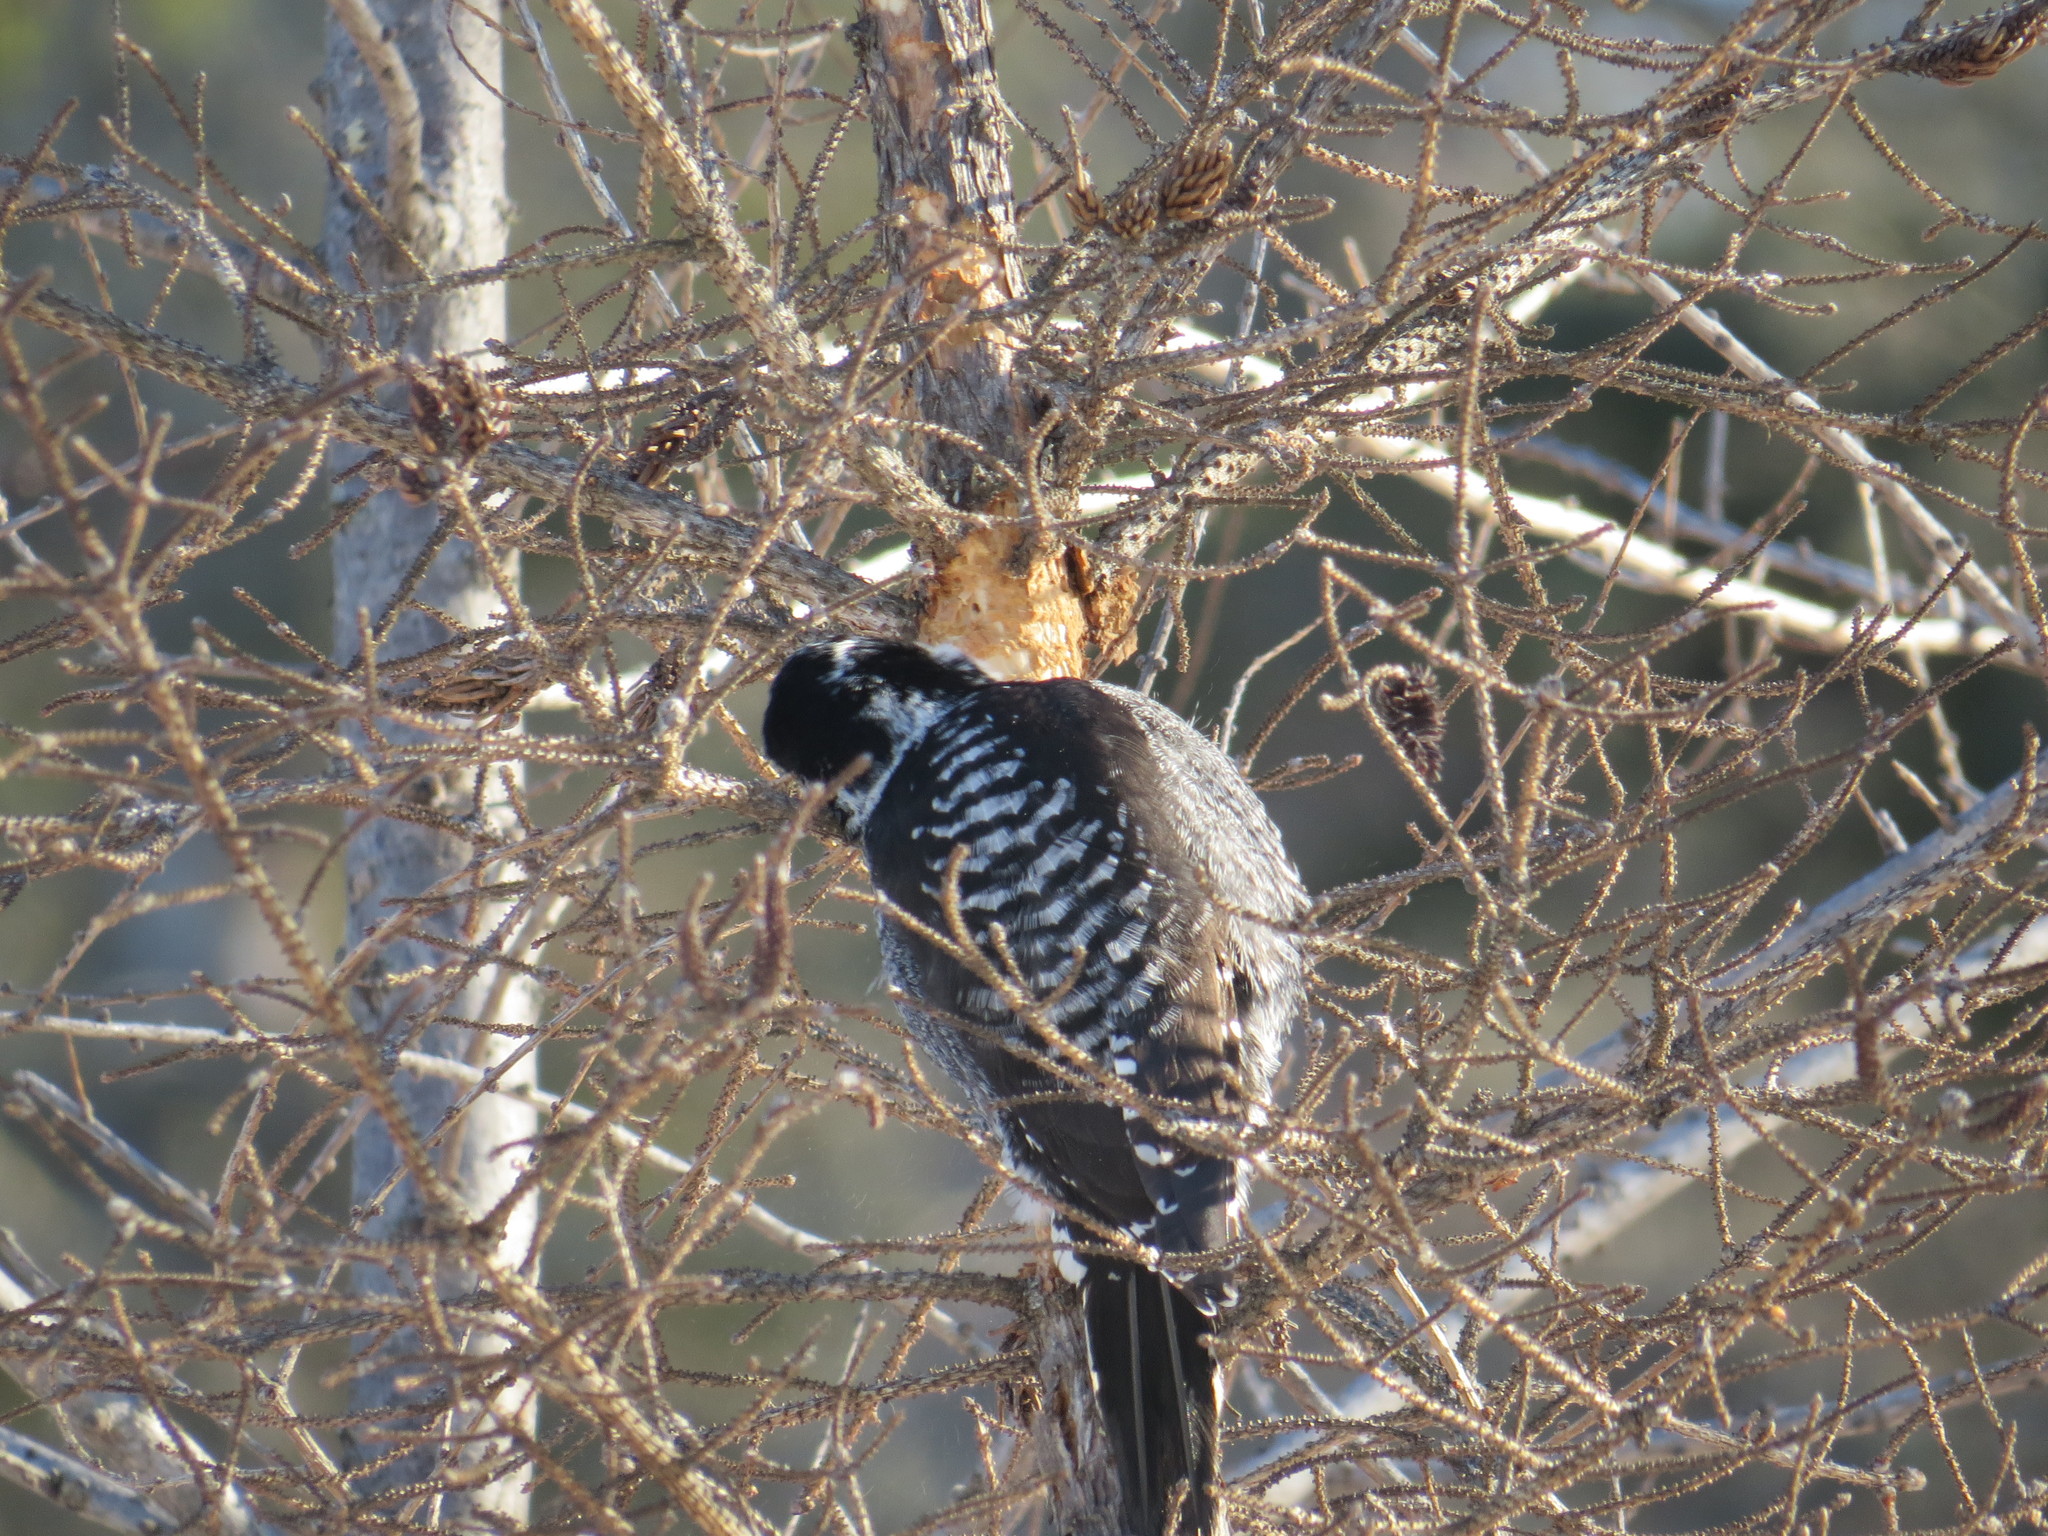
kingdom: Animalia
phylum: Chordata
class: Aves
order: Piciformes
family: Picidae
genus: Picoides
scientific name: Picoides dorsalis
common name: American three-toed woodpecker
